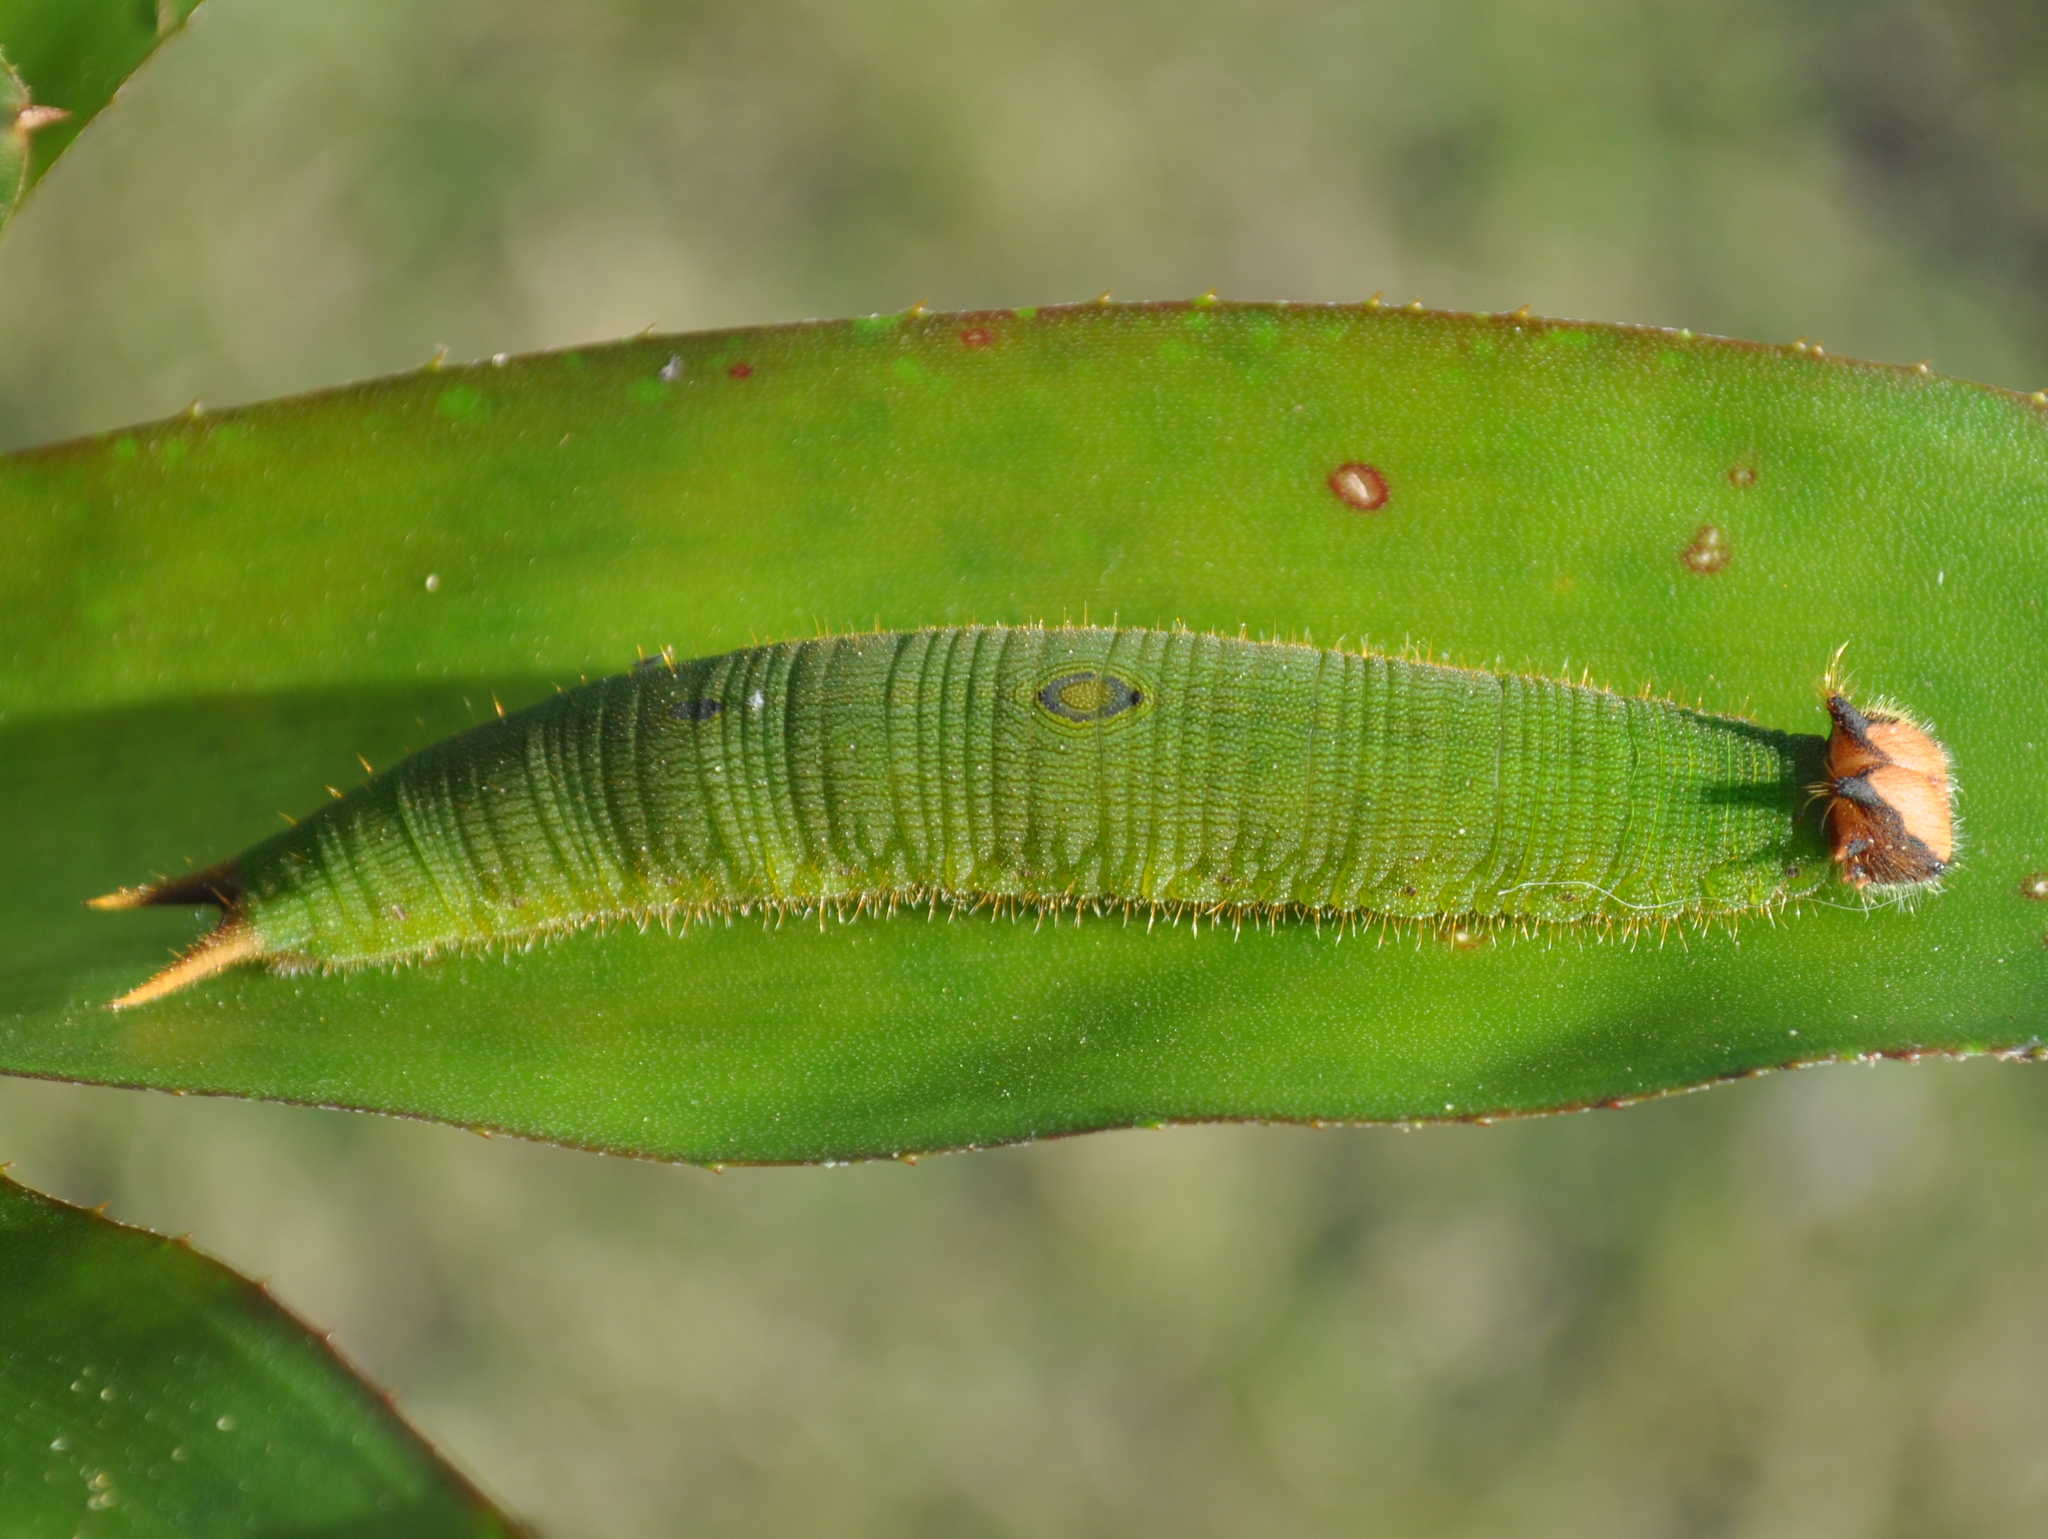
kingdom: Animalia
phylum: Arthropoda
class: Insecta
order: Lepidoptera
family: Nymphalidae
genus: Dynastor
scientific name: Dynastor darius
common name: Daring owl-butterfly
